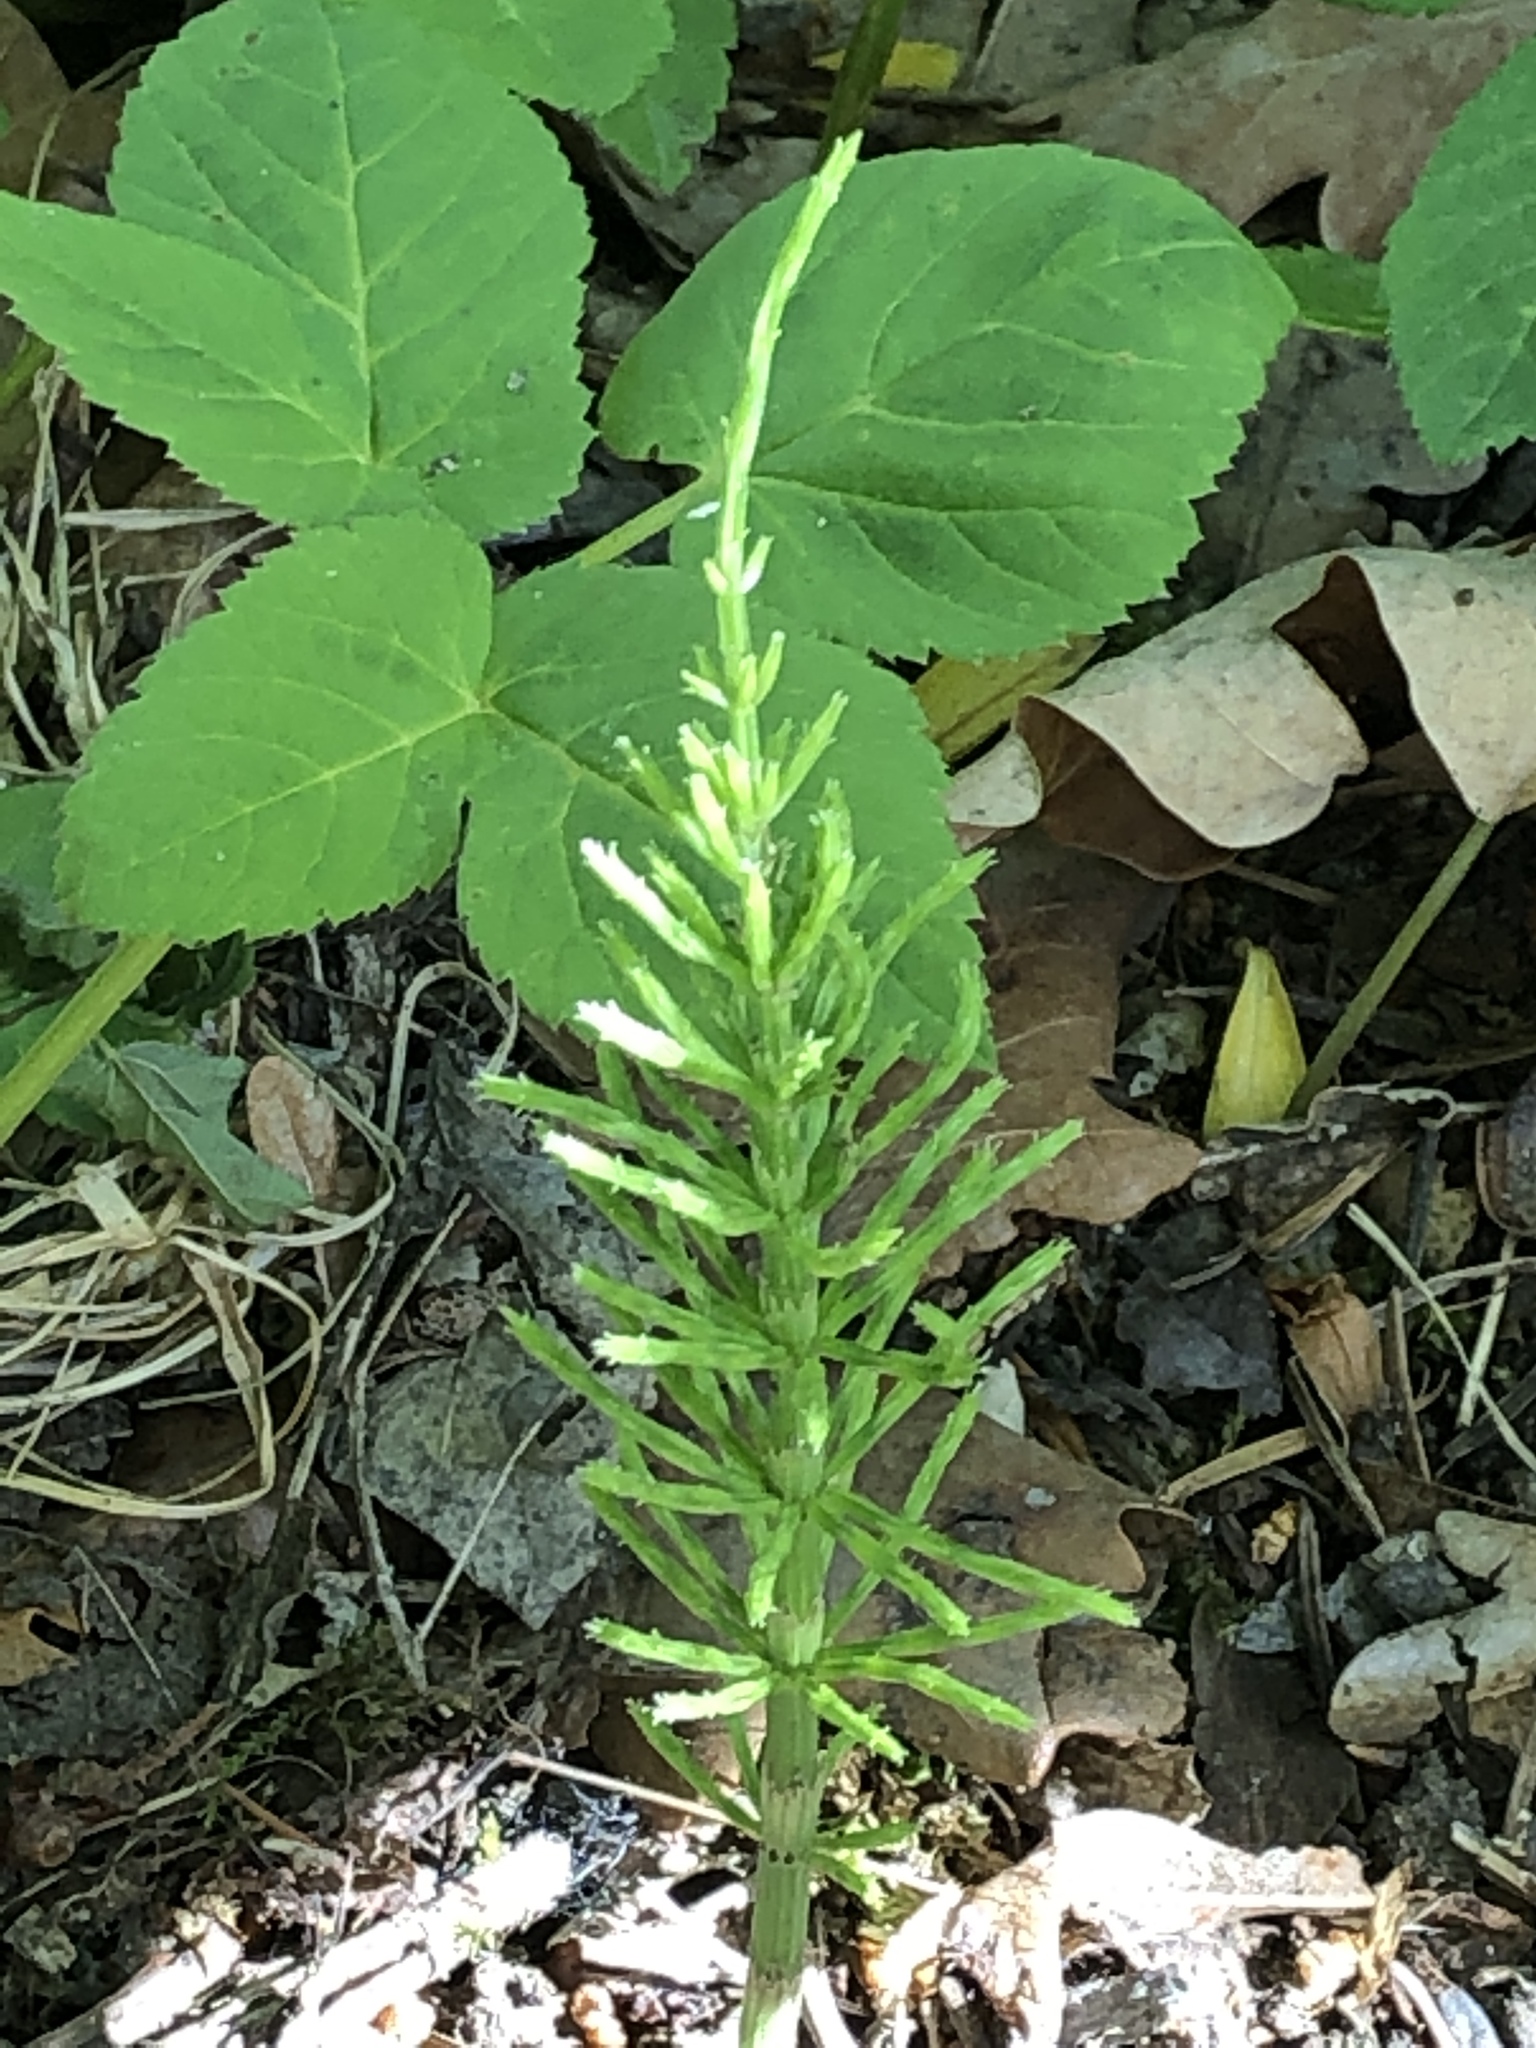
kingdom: Plantae
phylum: Tracheophyta
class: Polypodiopsida
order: Equisetales
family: Equisetaceae
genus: Equisetum
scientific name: Equisetum arvense
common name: Field horsetail
